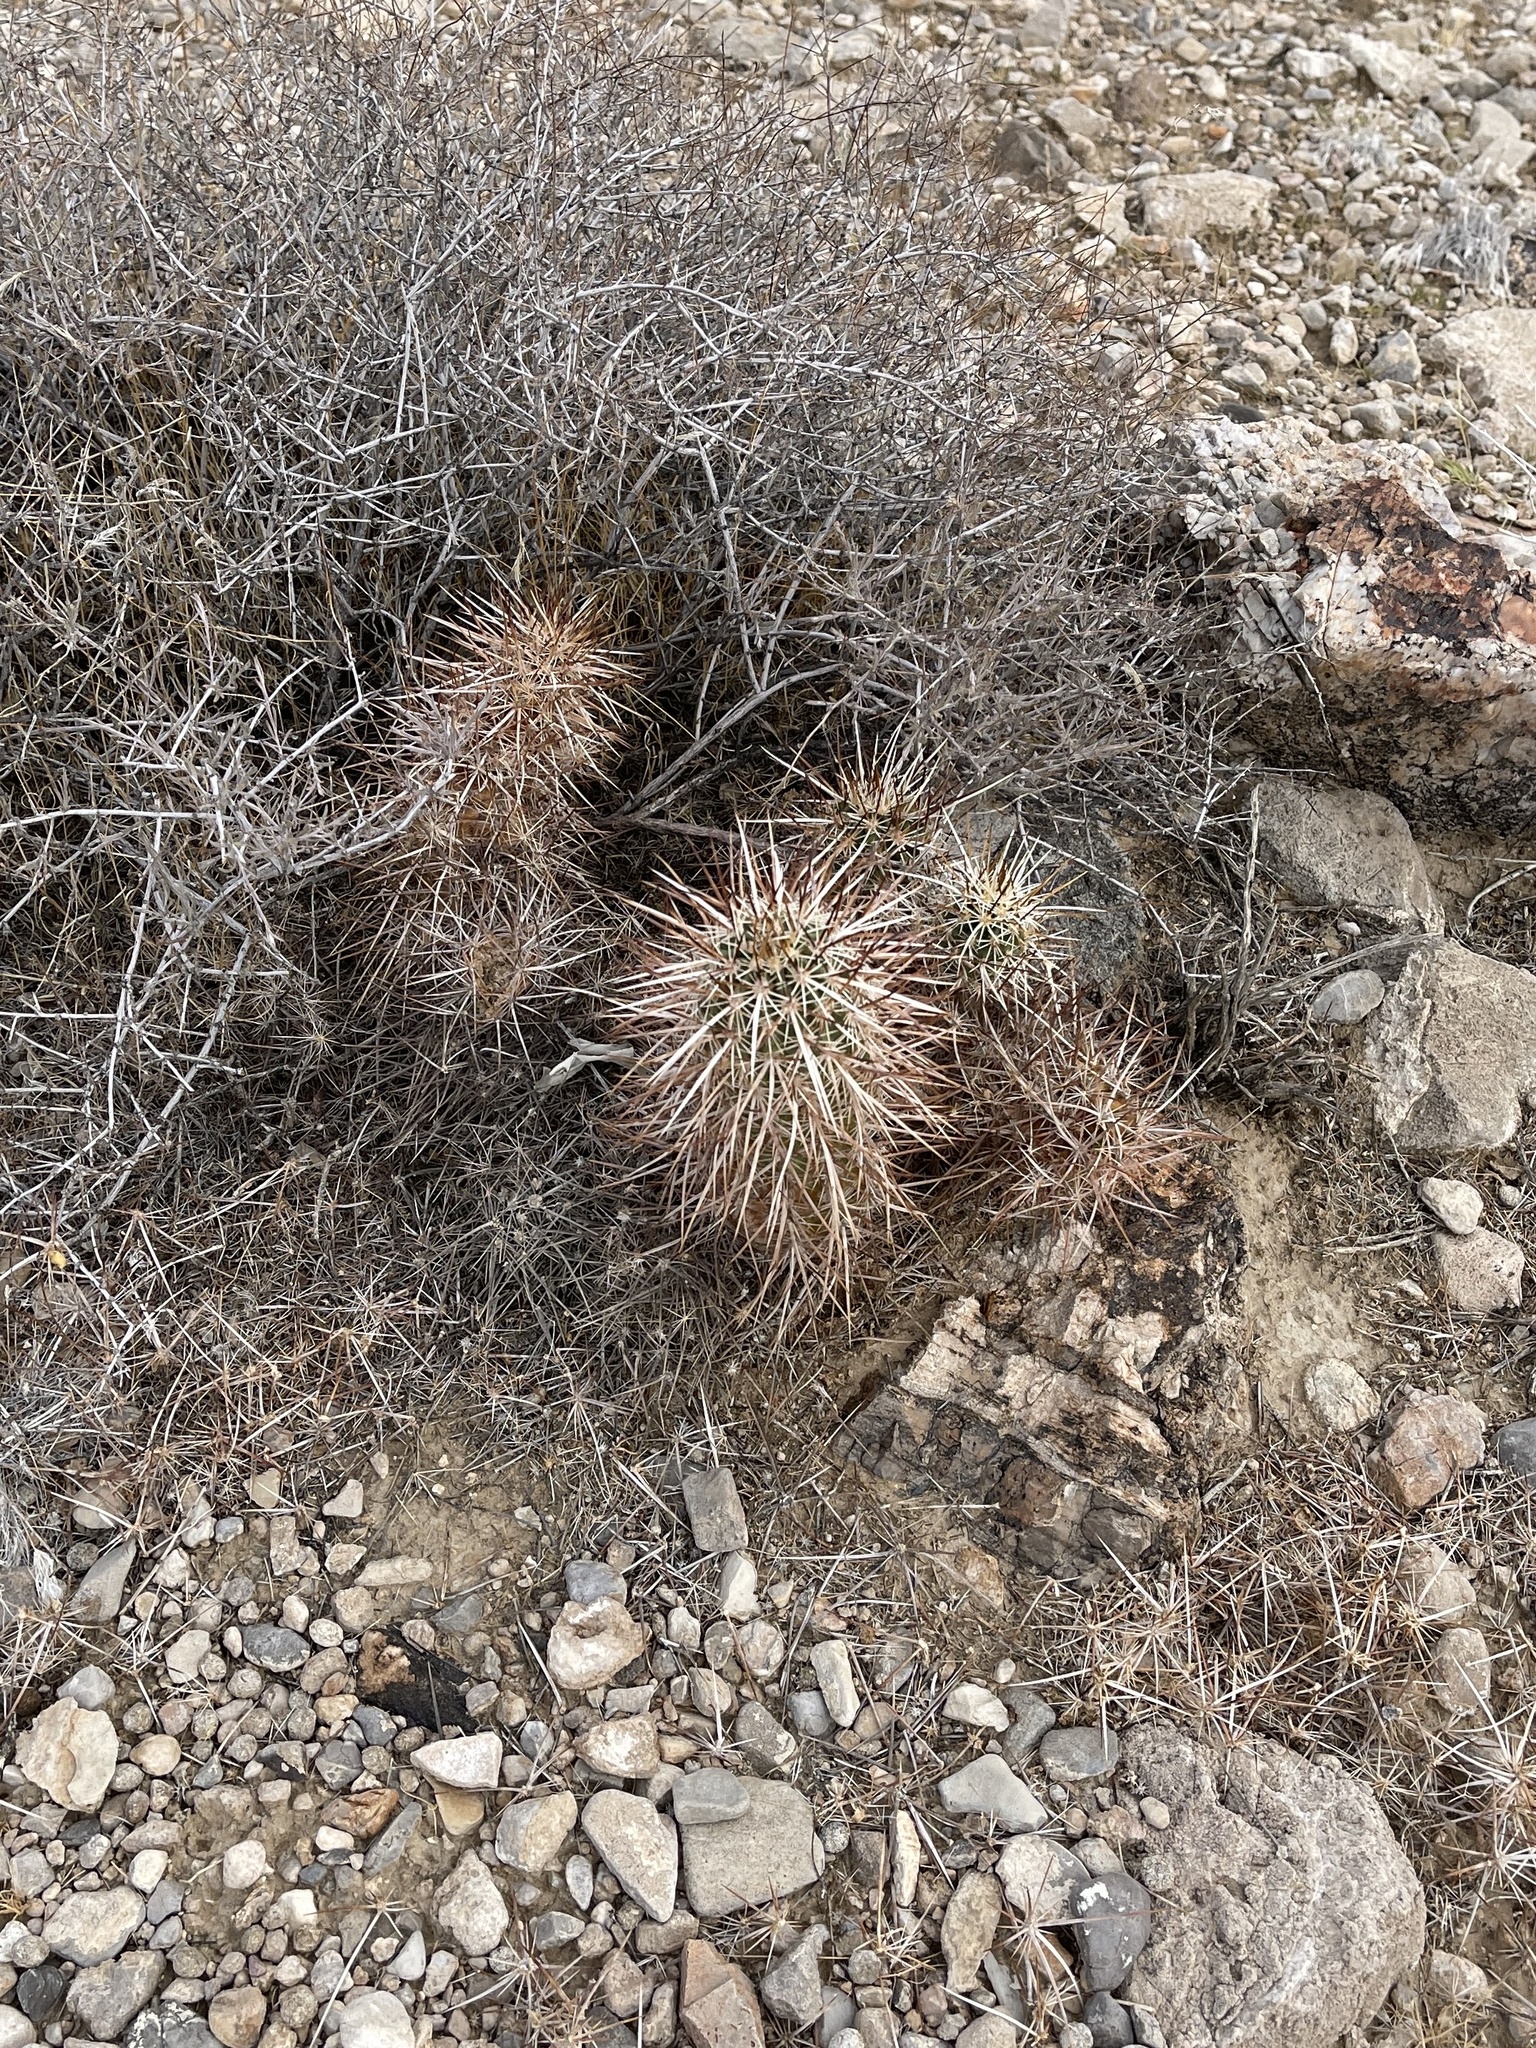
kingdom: Plantae
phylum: Tracheophyta
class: Magnoliopsida
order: Caryophyllales
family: Cactaceae
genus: Echinocereus
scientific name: Echinocereus engelmannii
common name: Engelmann's hedgehog cactus
